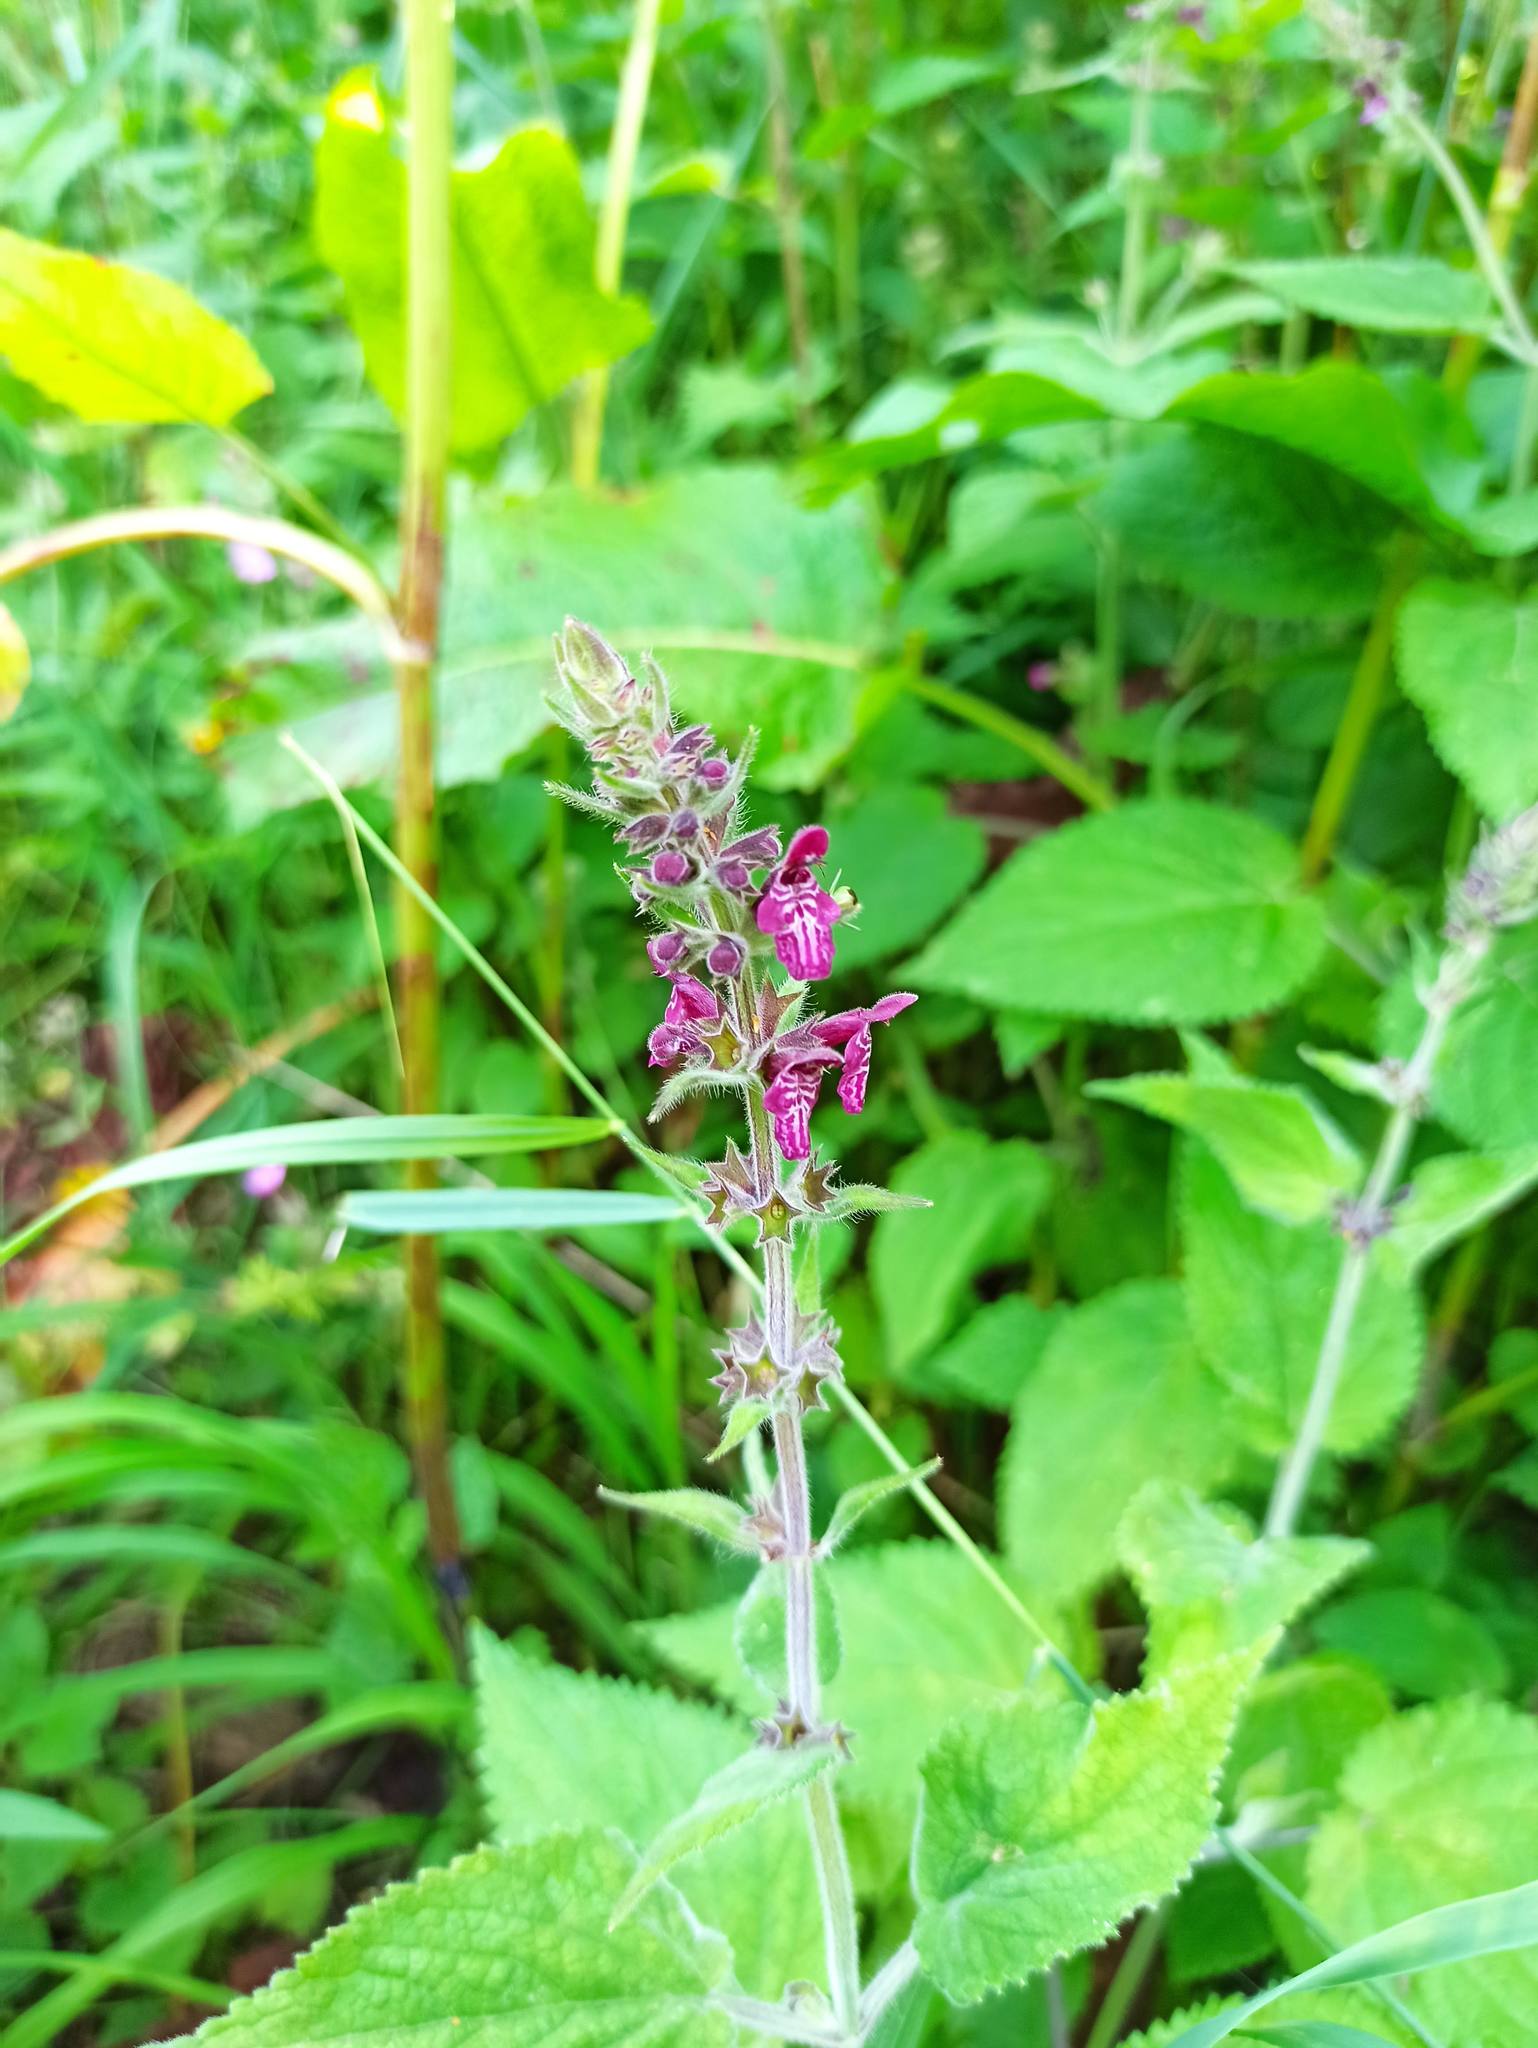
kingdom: Plantae
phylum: Tracheophyta
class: Magnoliopsida
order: Lamiales
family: Lamiaceae
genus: Stachys
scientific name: Stachys sylvatica
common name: Hedge woundwort
